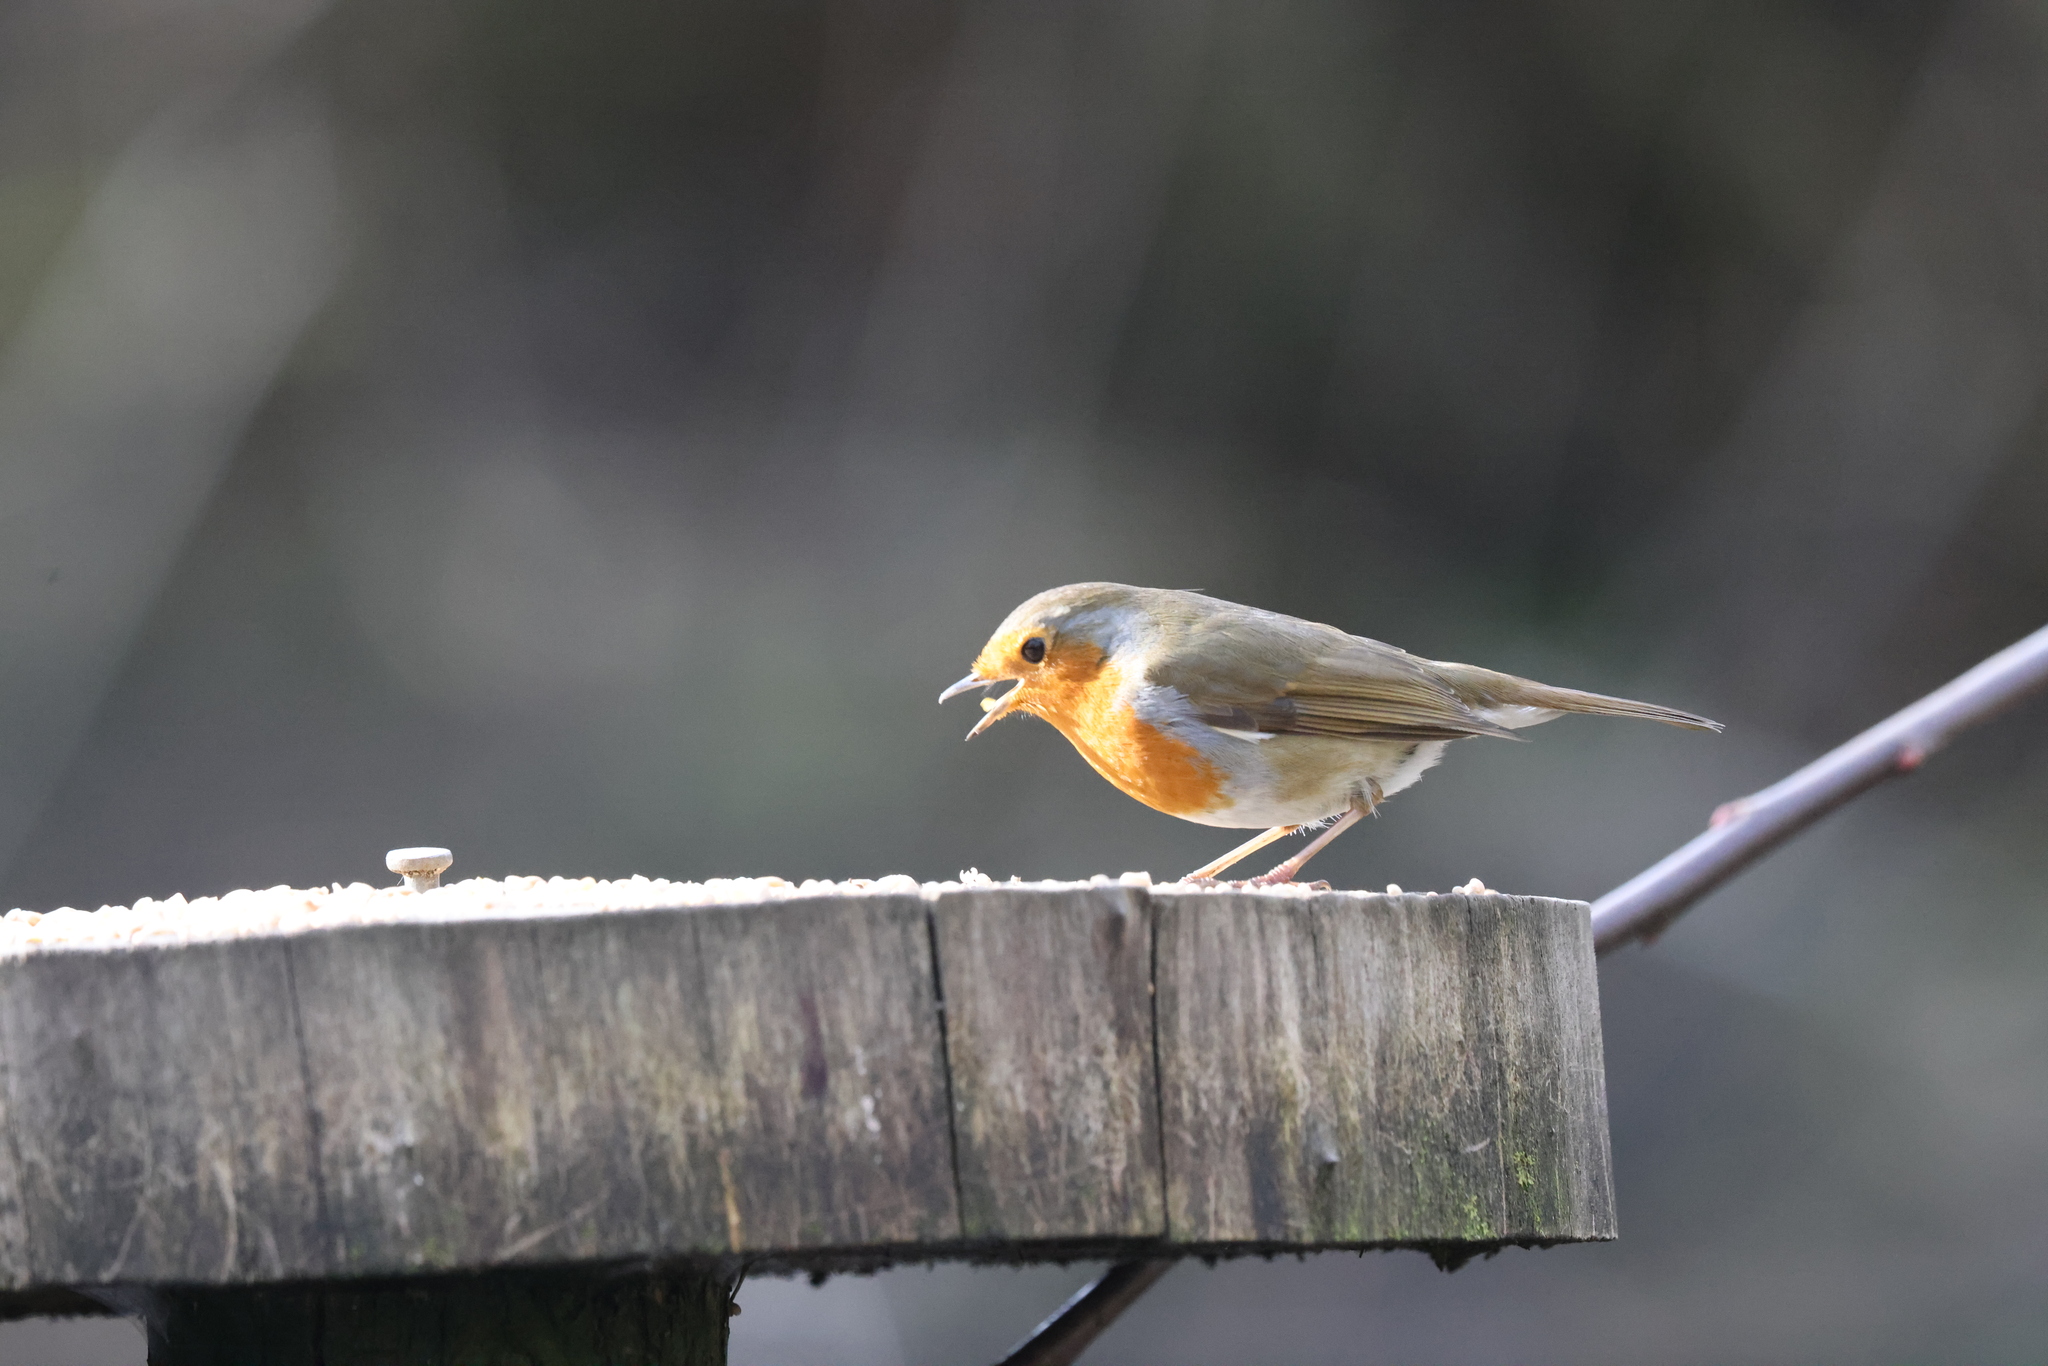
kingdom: Animalia
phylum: Chordata
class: Aves
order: Passeriformes
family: Muscicapidae
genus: Erithacus
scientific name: Erithacus rubecula
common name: European robin
